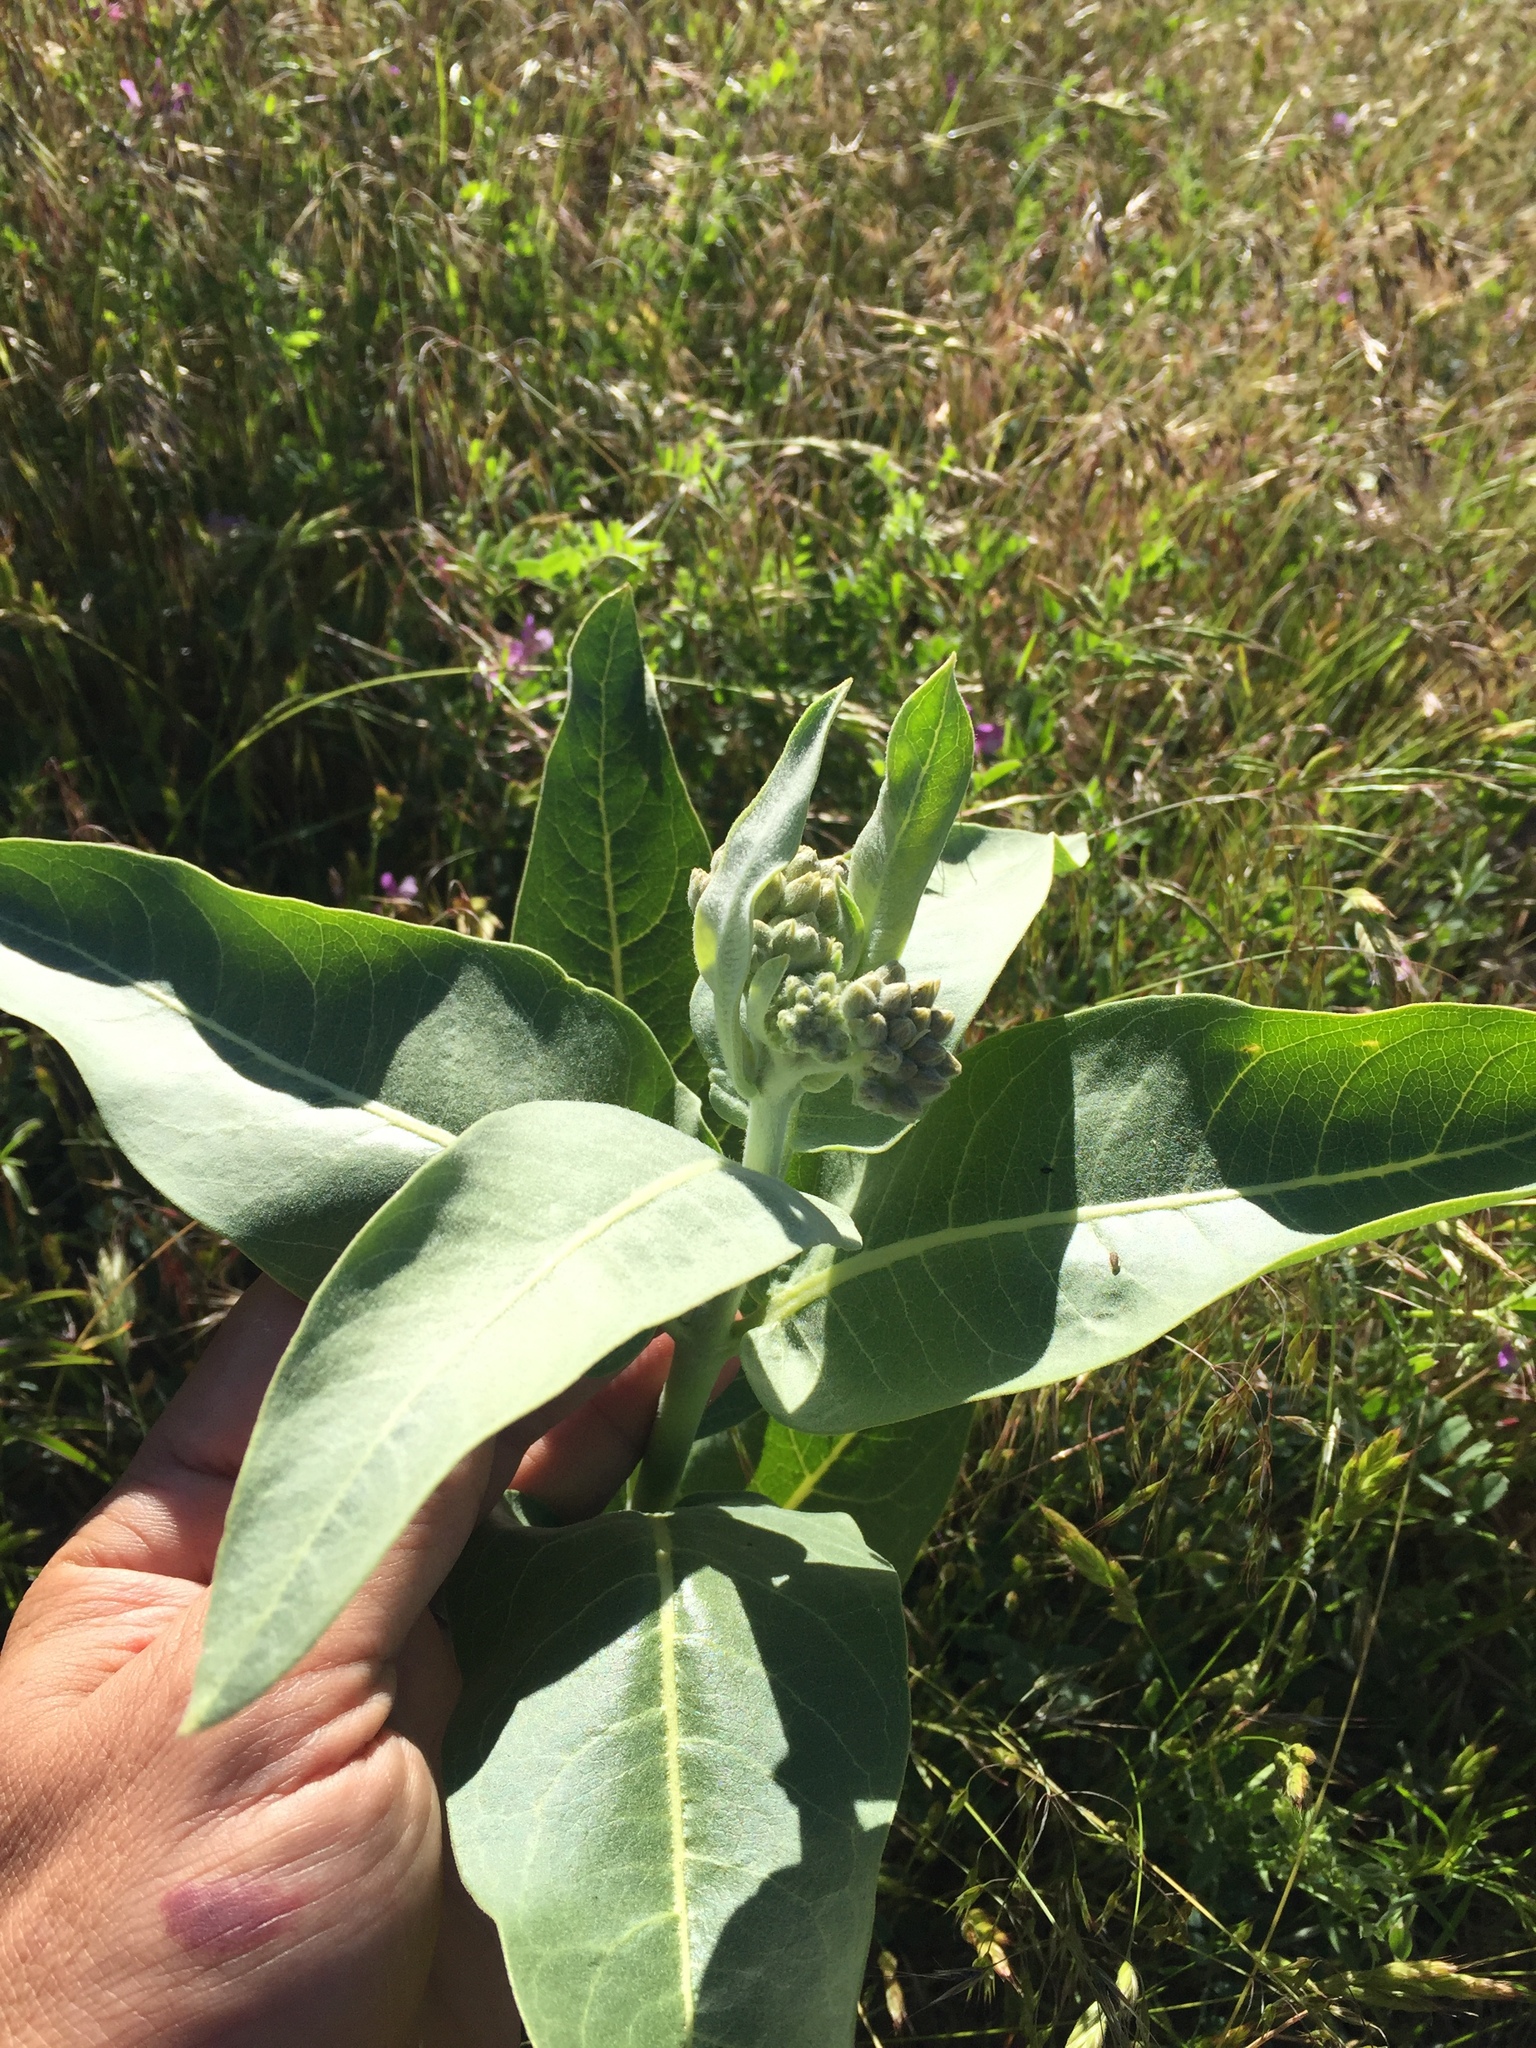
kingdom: Plantae
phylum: Tracheophyta
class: Magnoliopsida
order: Gentianales
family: Apocynaceae
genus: Asclepias
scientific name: Asclepias speciosa
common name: Showy milkweed
